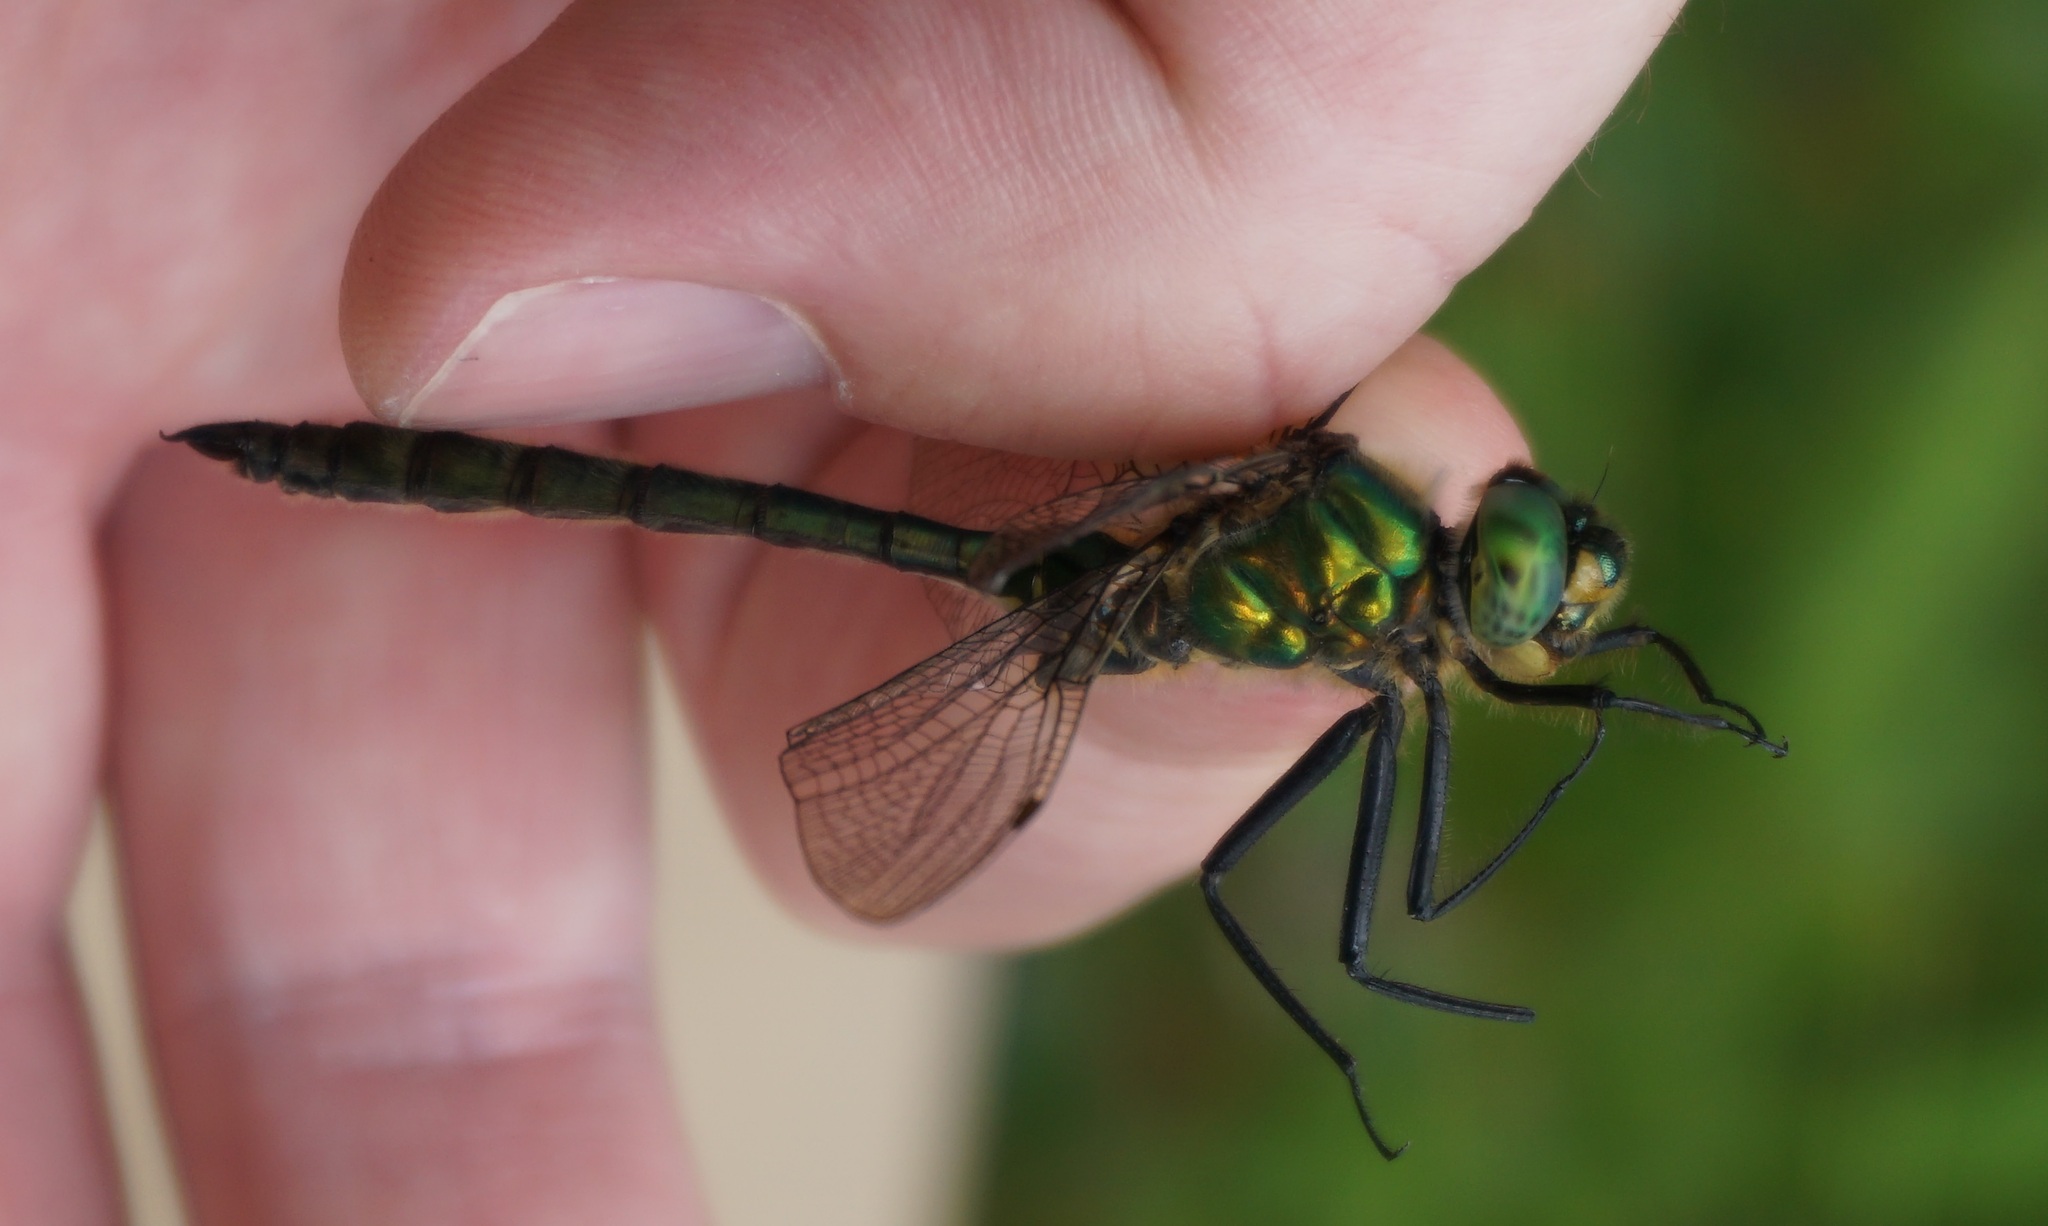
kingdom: Animalia
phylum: Arthropoda
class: Insecta
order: Odonata
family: Corduliidae
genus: Somatochlora
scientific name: Somatochlora metallica
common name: Brilliant emerald
